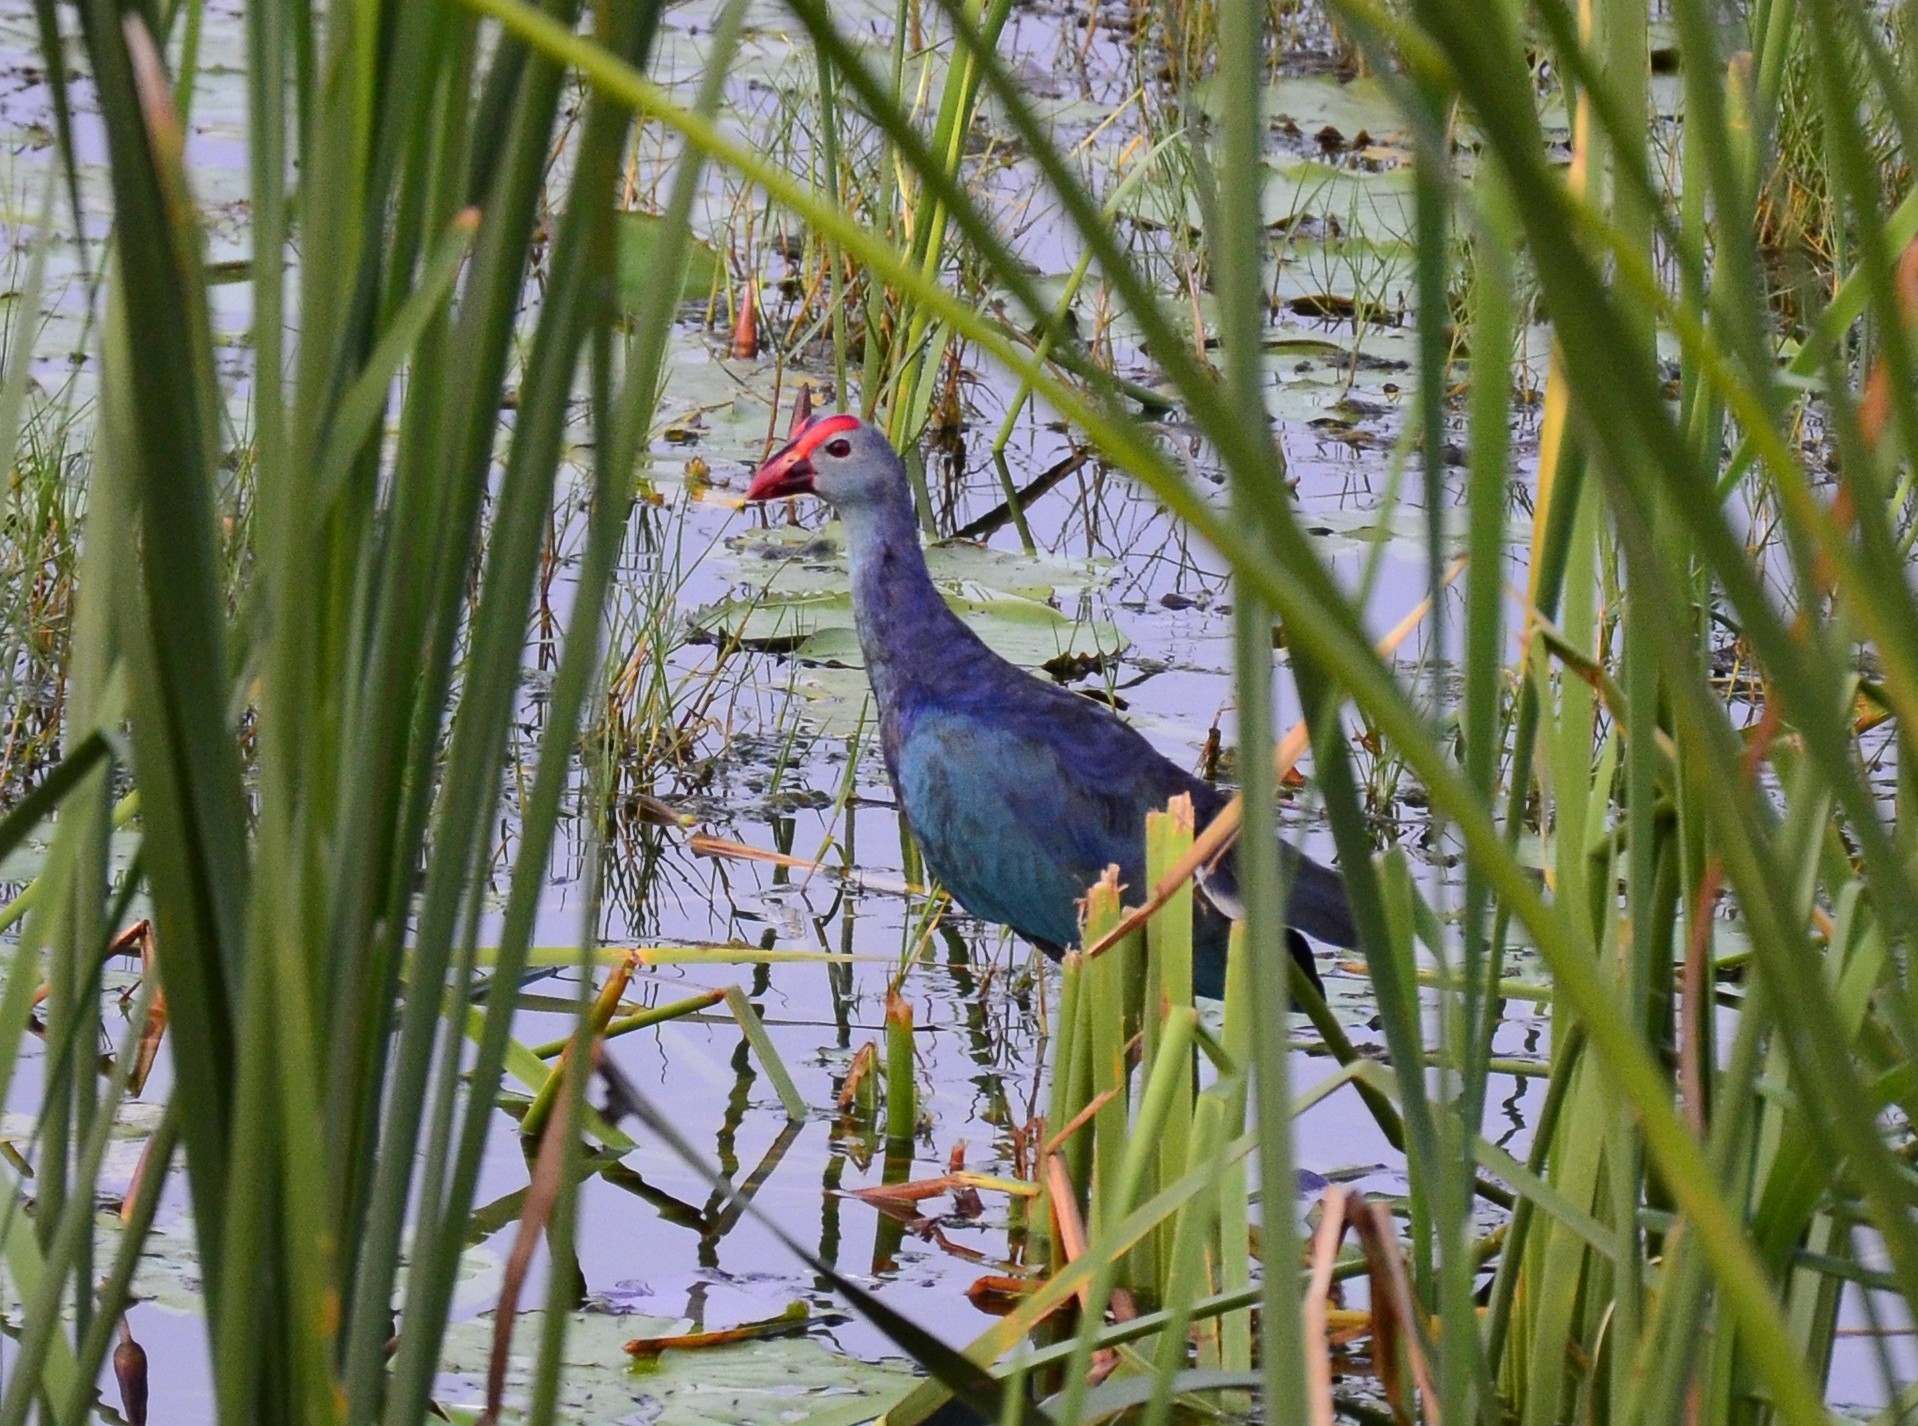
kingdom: Animalia
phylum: Chordata
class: Aves
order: Gruiformes
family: Rallidae
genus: Porphyrio
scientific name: Porphyrio porphyrio
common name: Purple swamphen
